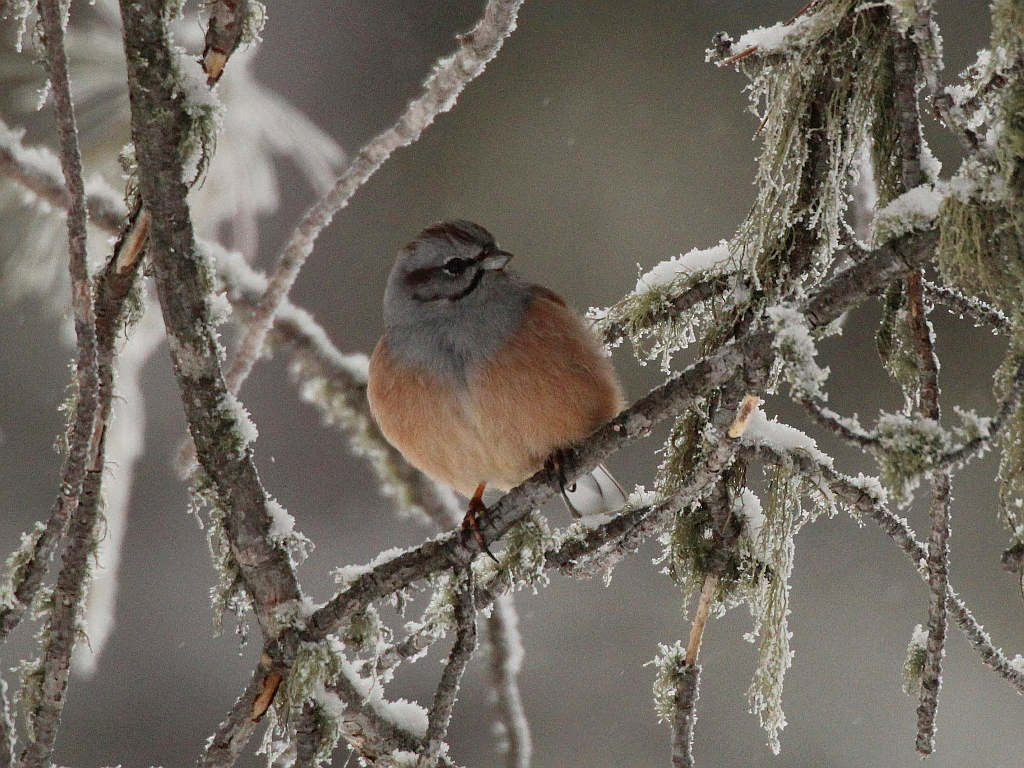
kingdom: Animalia
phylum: Chordata
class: Aves
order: Passeriformes
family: Emberizidae
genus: Emberiza
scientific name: Emberiza godlewskii
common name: Godlewski's bunting
